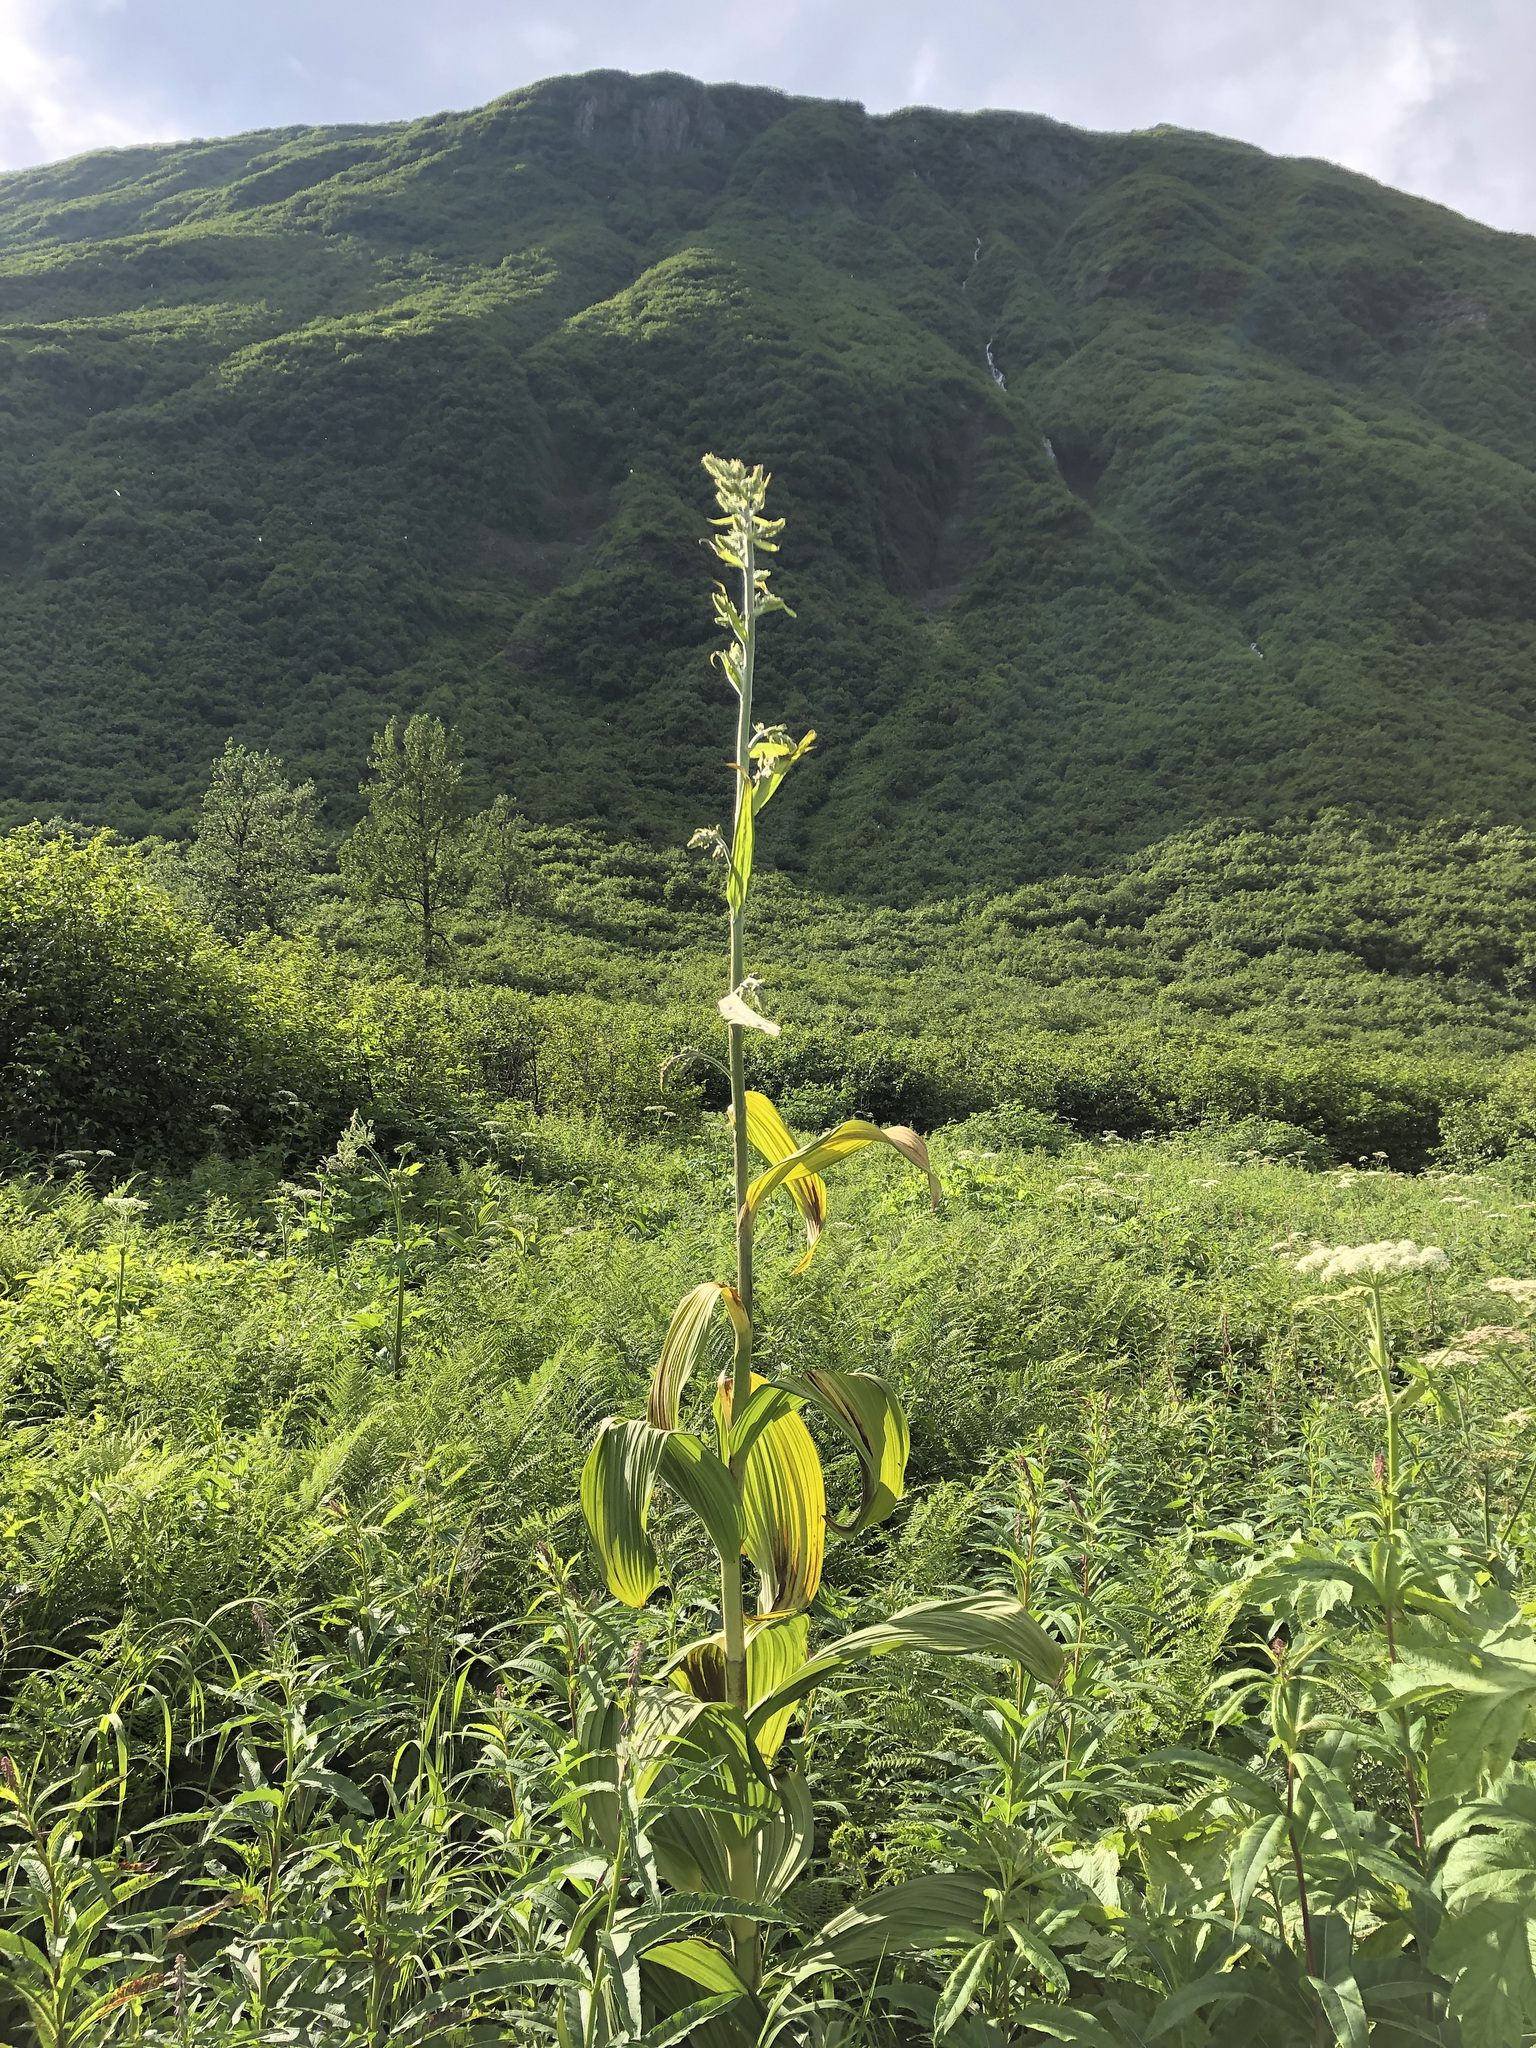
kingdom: Plantae
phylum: Tracheophyta
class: Liliopsida
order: Liliales
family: Melanthiaceae
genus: Veratrum
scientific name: Veratrum viride
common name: American false hellebore
